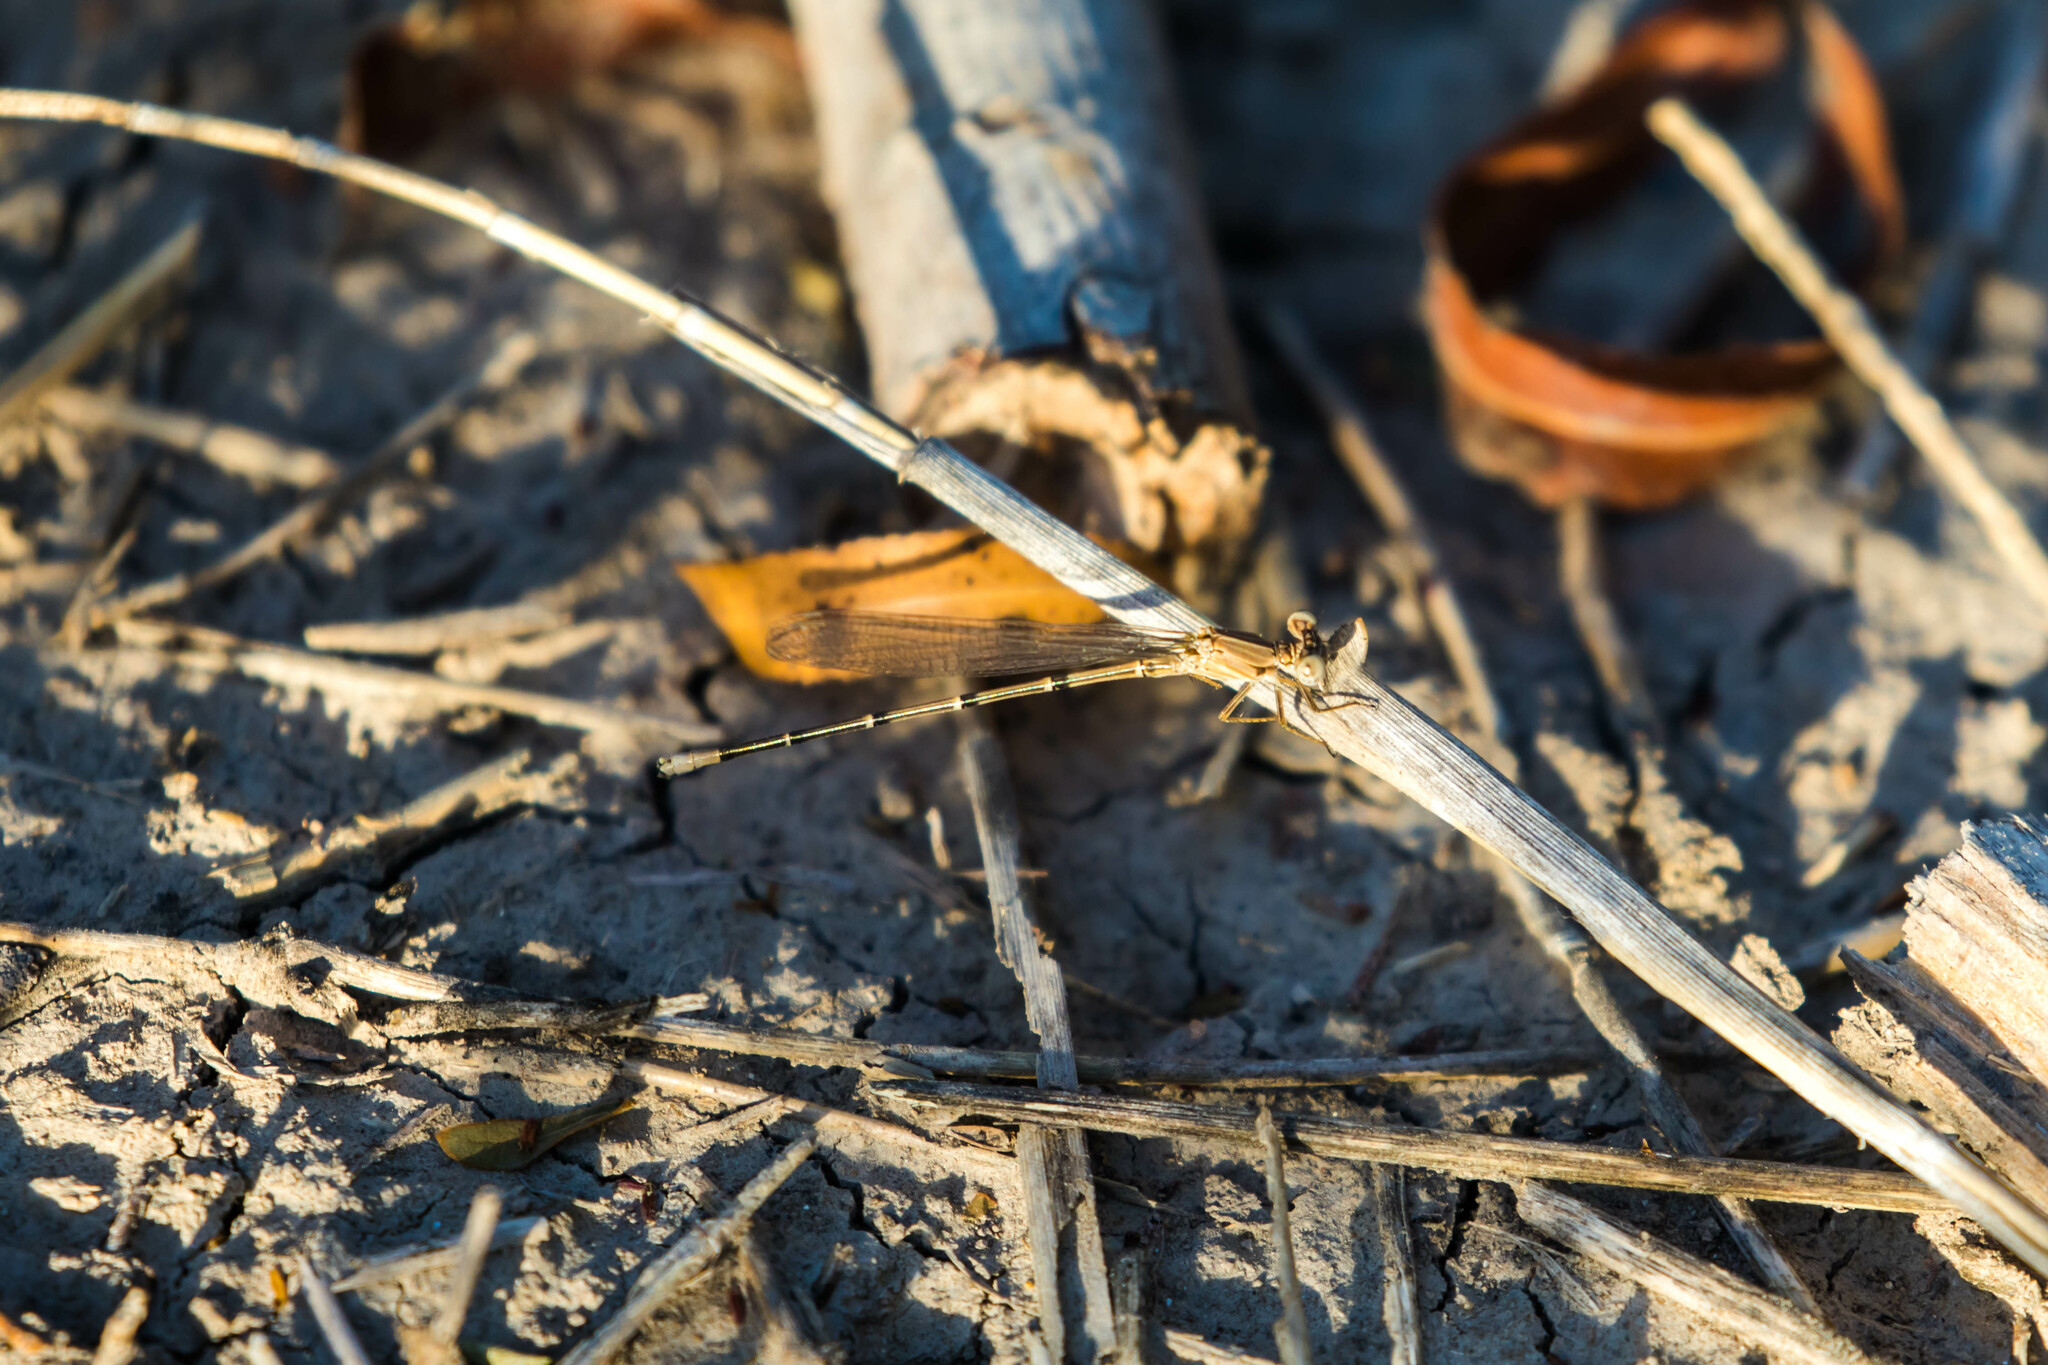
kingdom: Animalia
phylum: Arthropoda
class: Insecta
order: Odonata
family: Coenagrionidae
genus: Argia
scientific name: Argia apicalis
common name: Blue-fronted dancer
